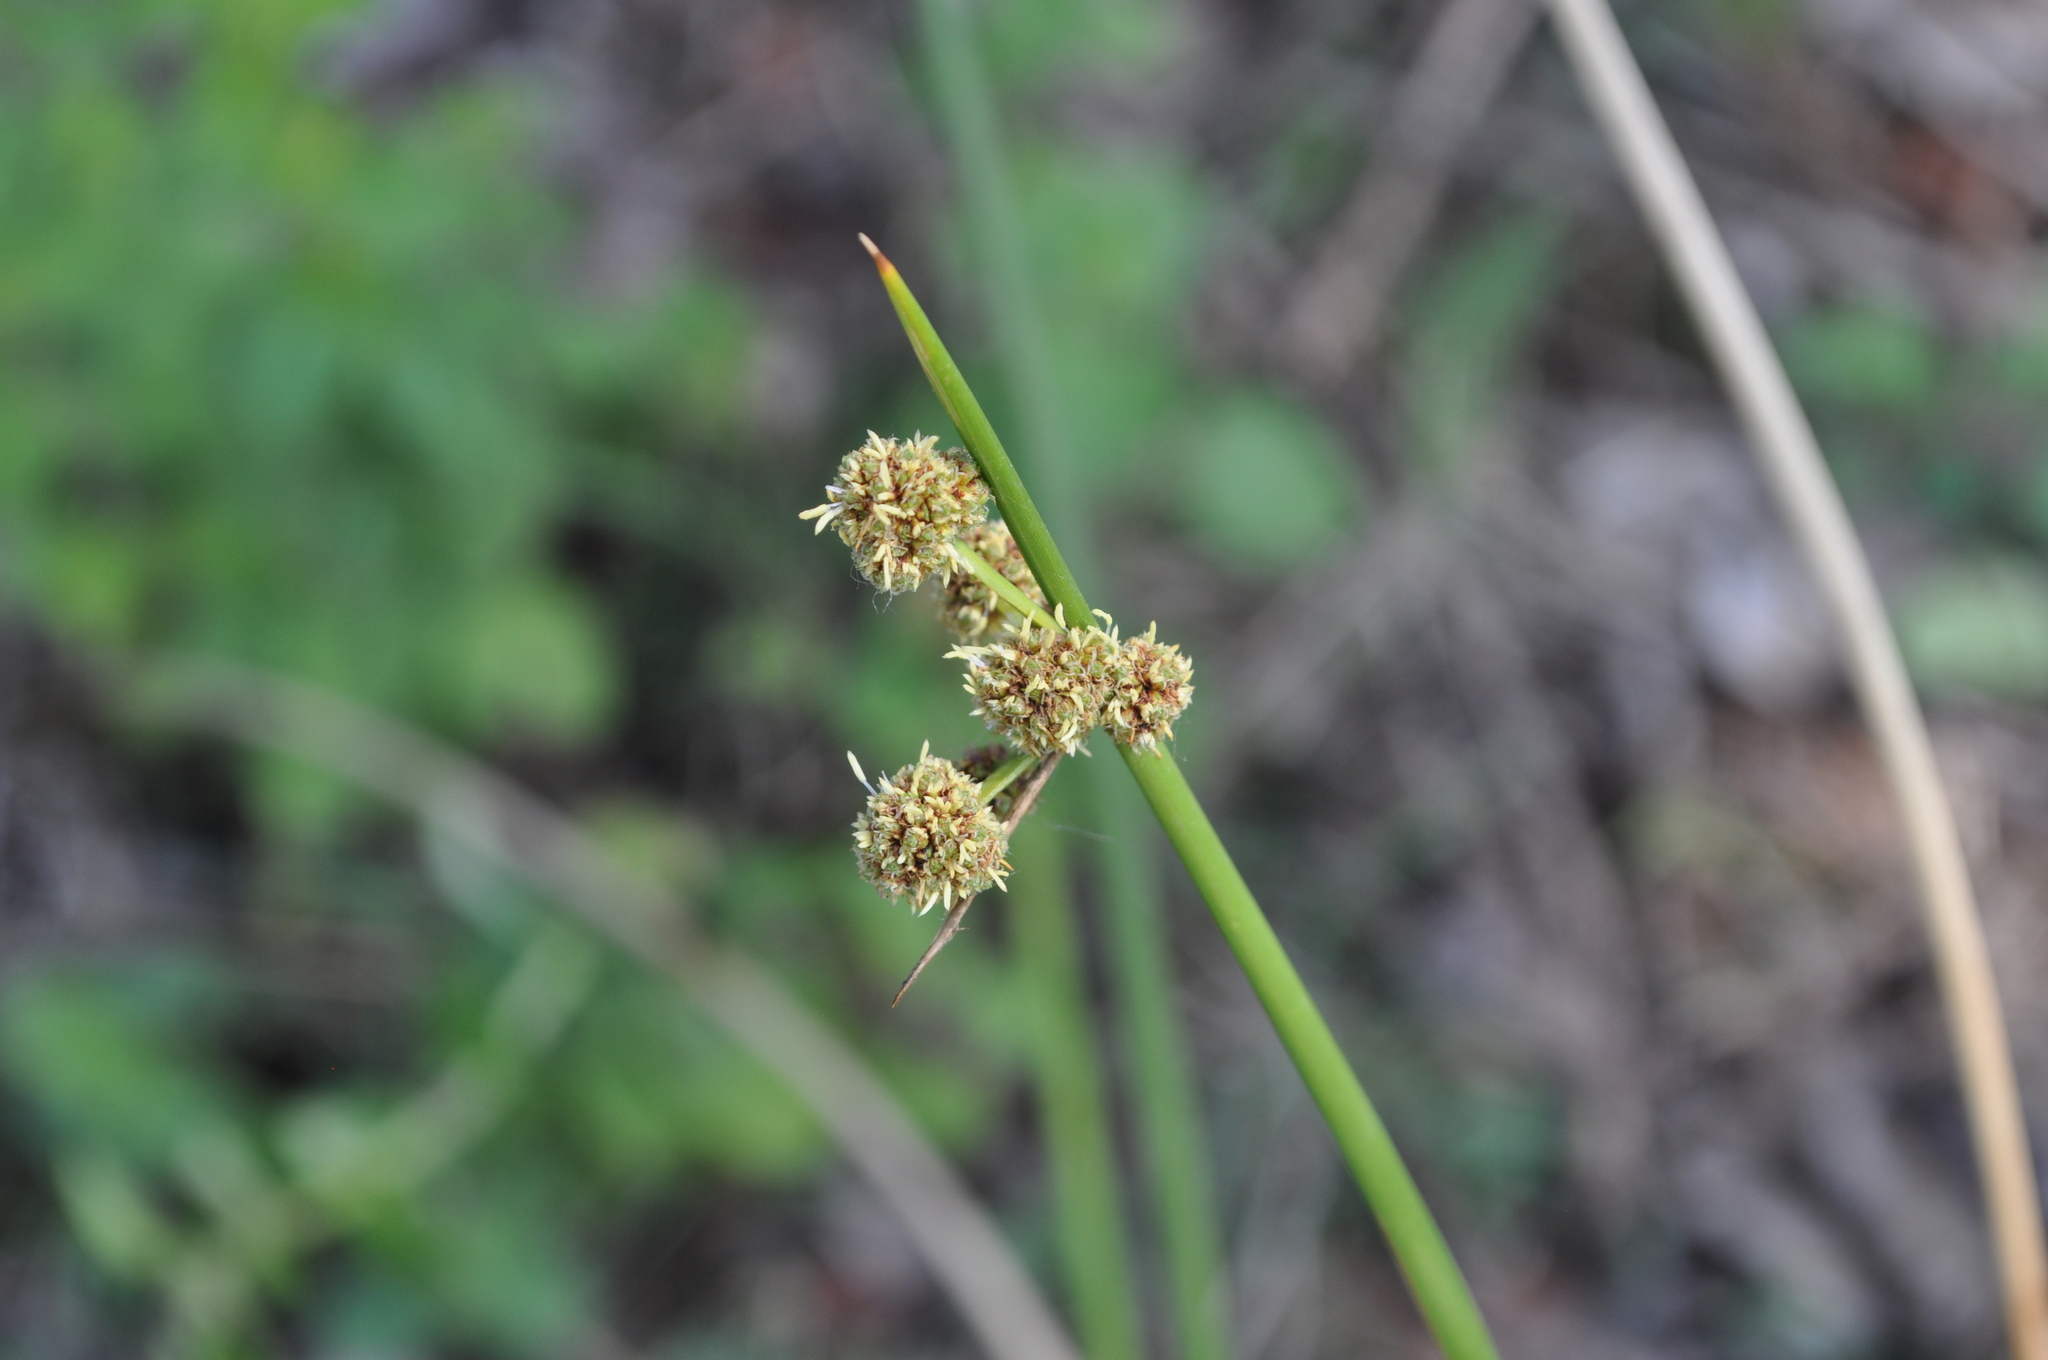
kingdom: Plantae
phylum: Tracheophyta
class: Liliopsida
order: Poales
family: Cyperaceae
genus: Scirpoides
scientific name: Scirpoides holoschoenus
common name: Round-headed club-rush
